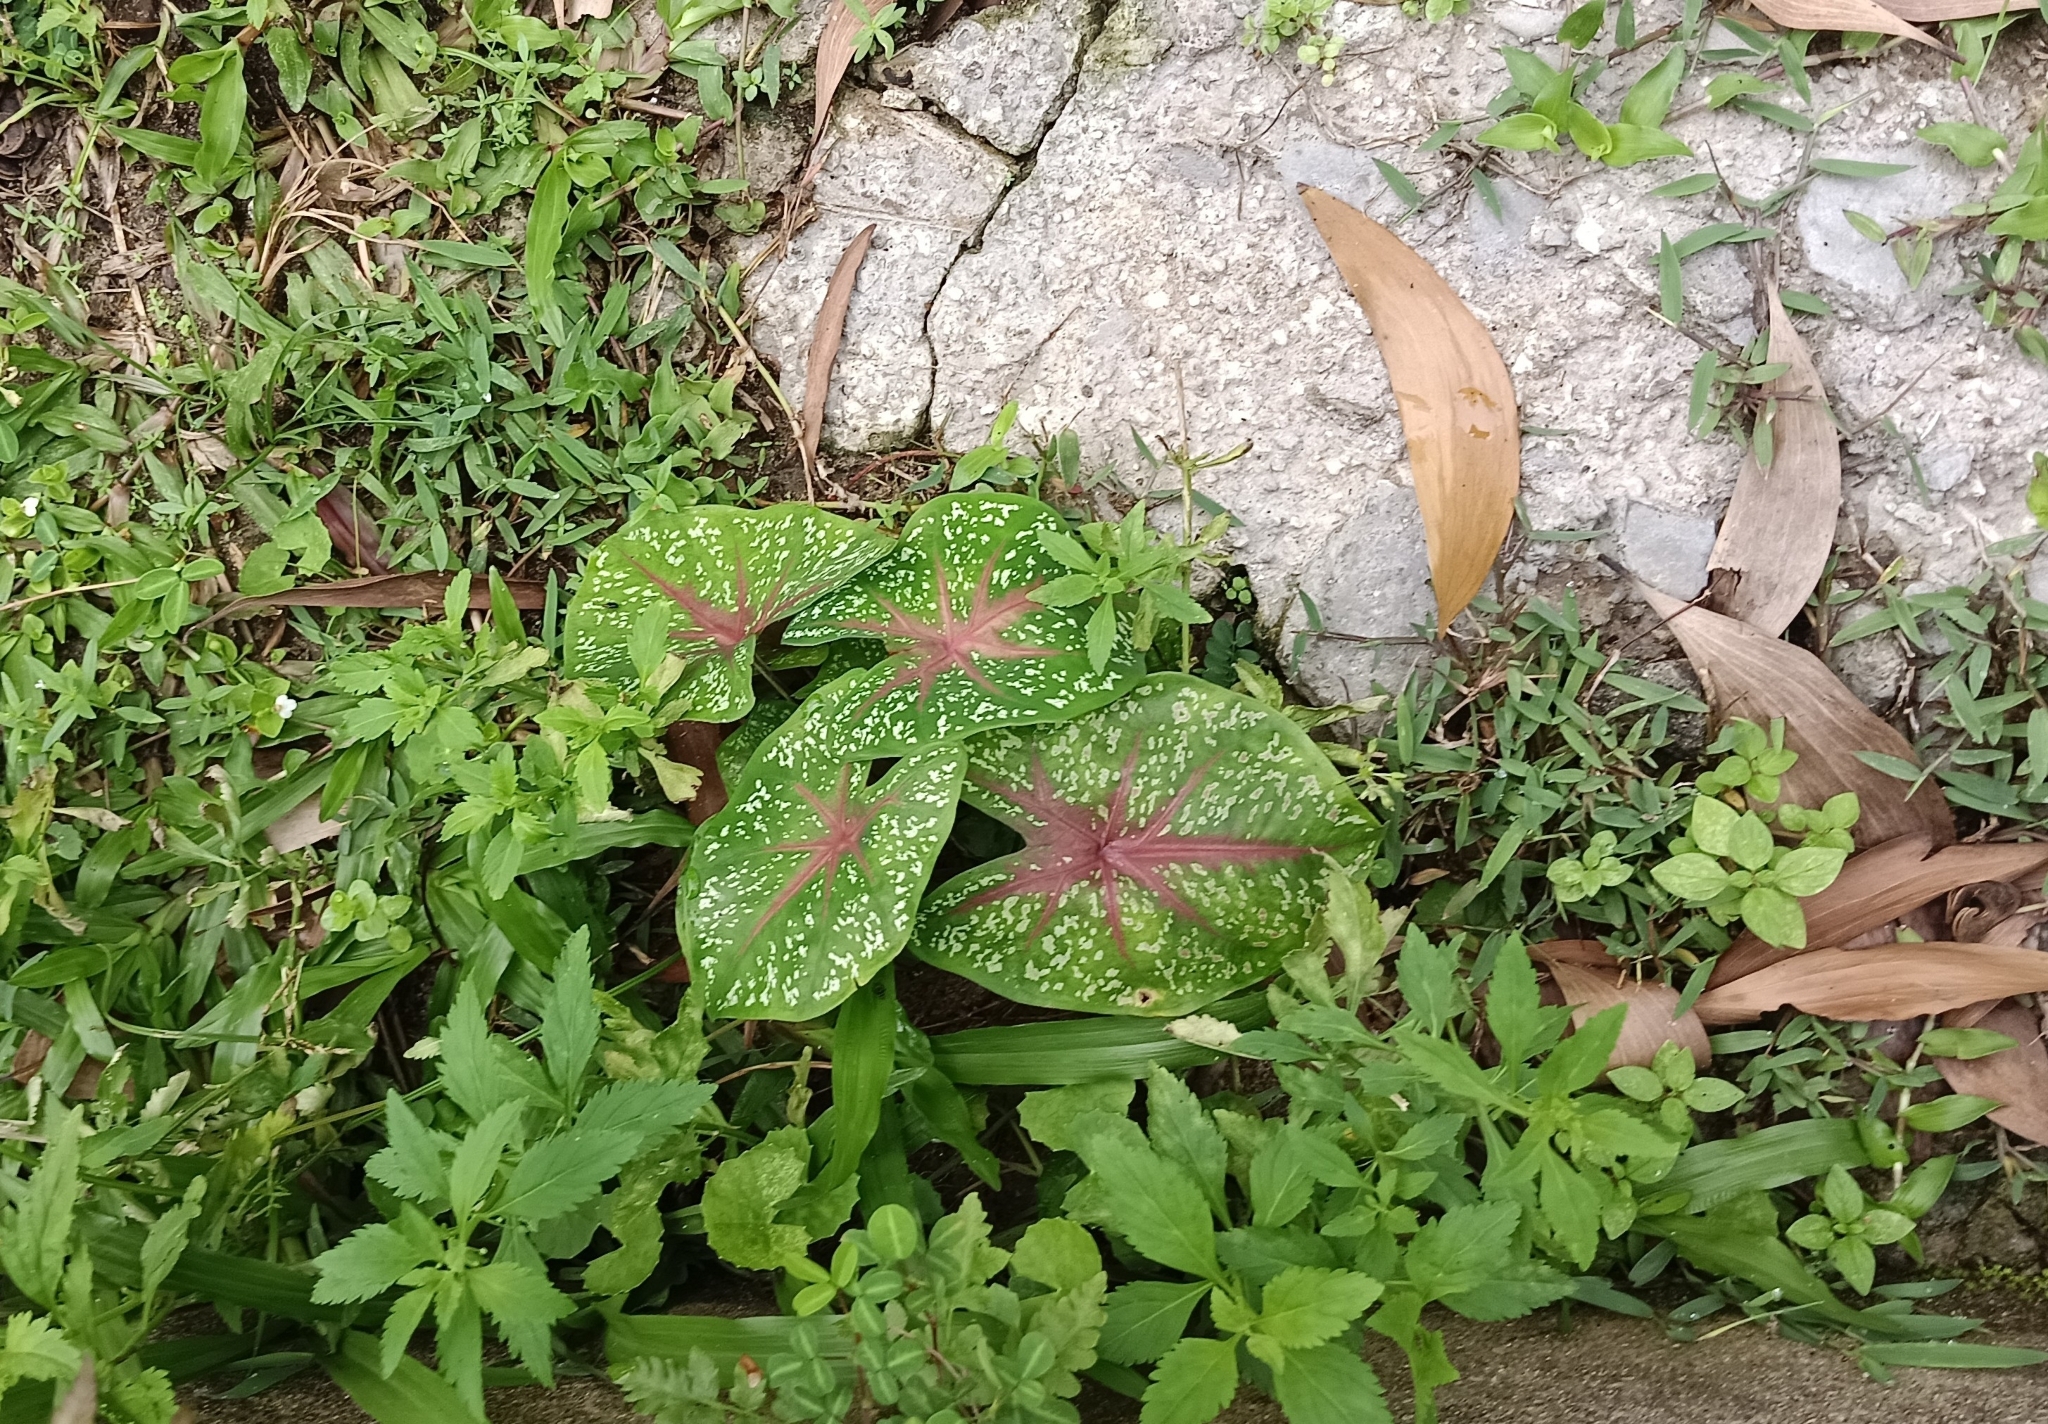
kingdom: Plantae
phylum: Tracheophyta
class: Liliopsida
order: Alismatales
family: Araceae
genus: Caladium
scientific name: Caladium bicolor
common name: Artist's pallet
